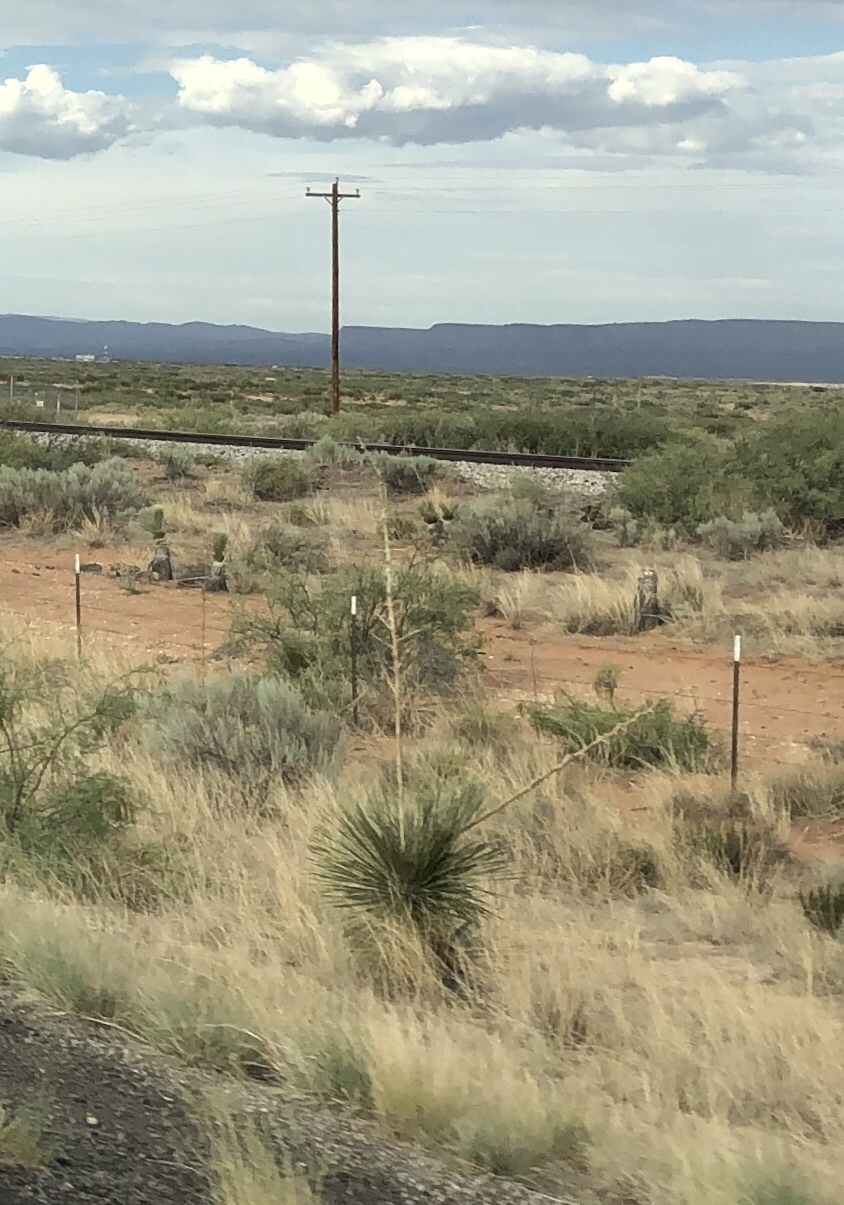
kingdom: Plantae
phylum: Tracheophyta
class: Liliopsida
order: Asparagales
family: Asparagaceae
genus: Yucca
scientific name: Yucca elata
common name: Palmella
